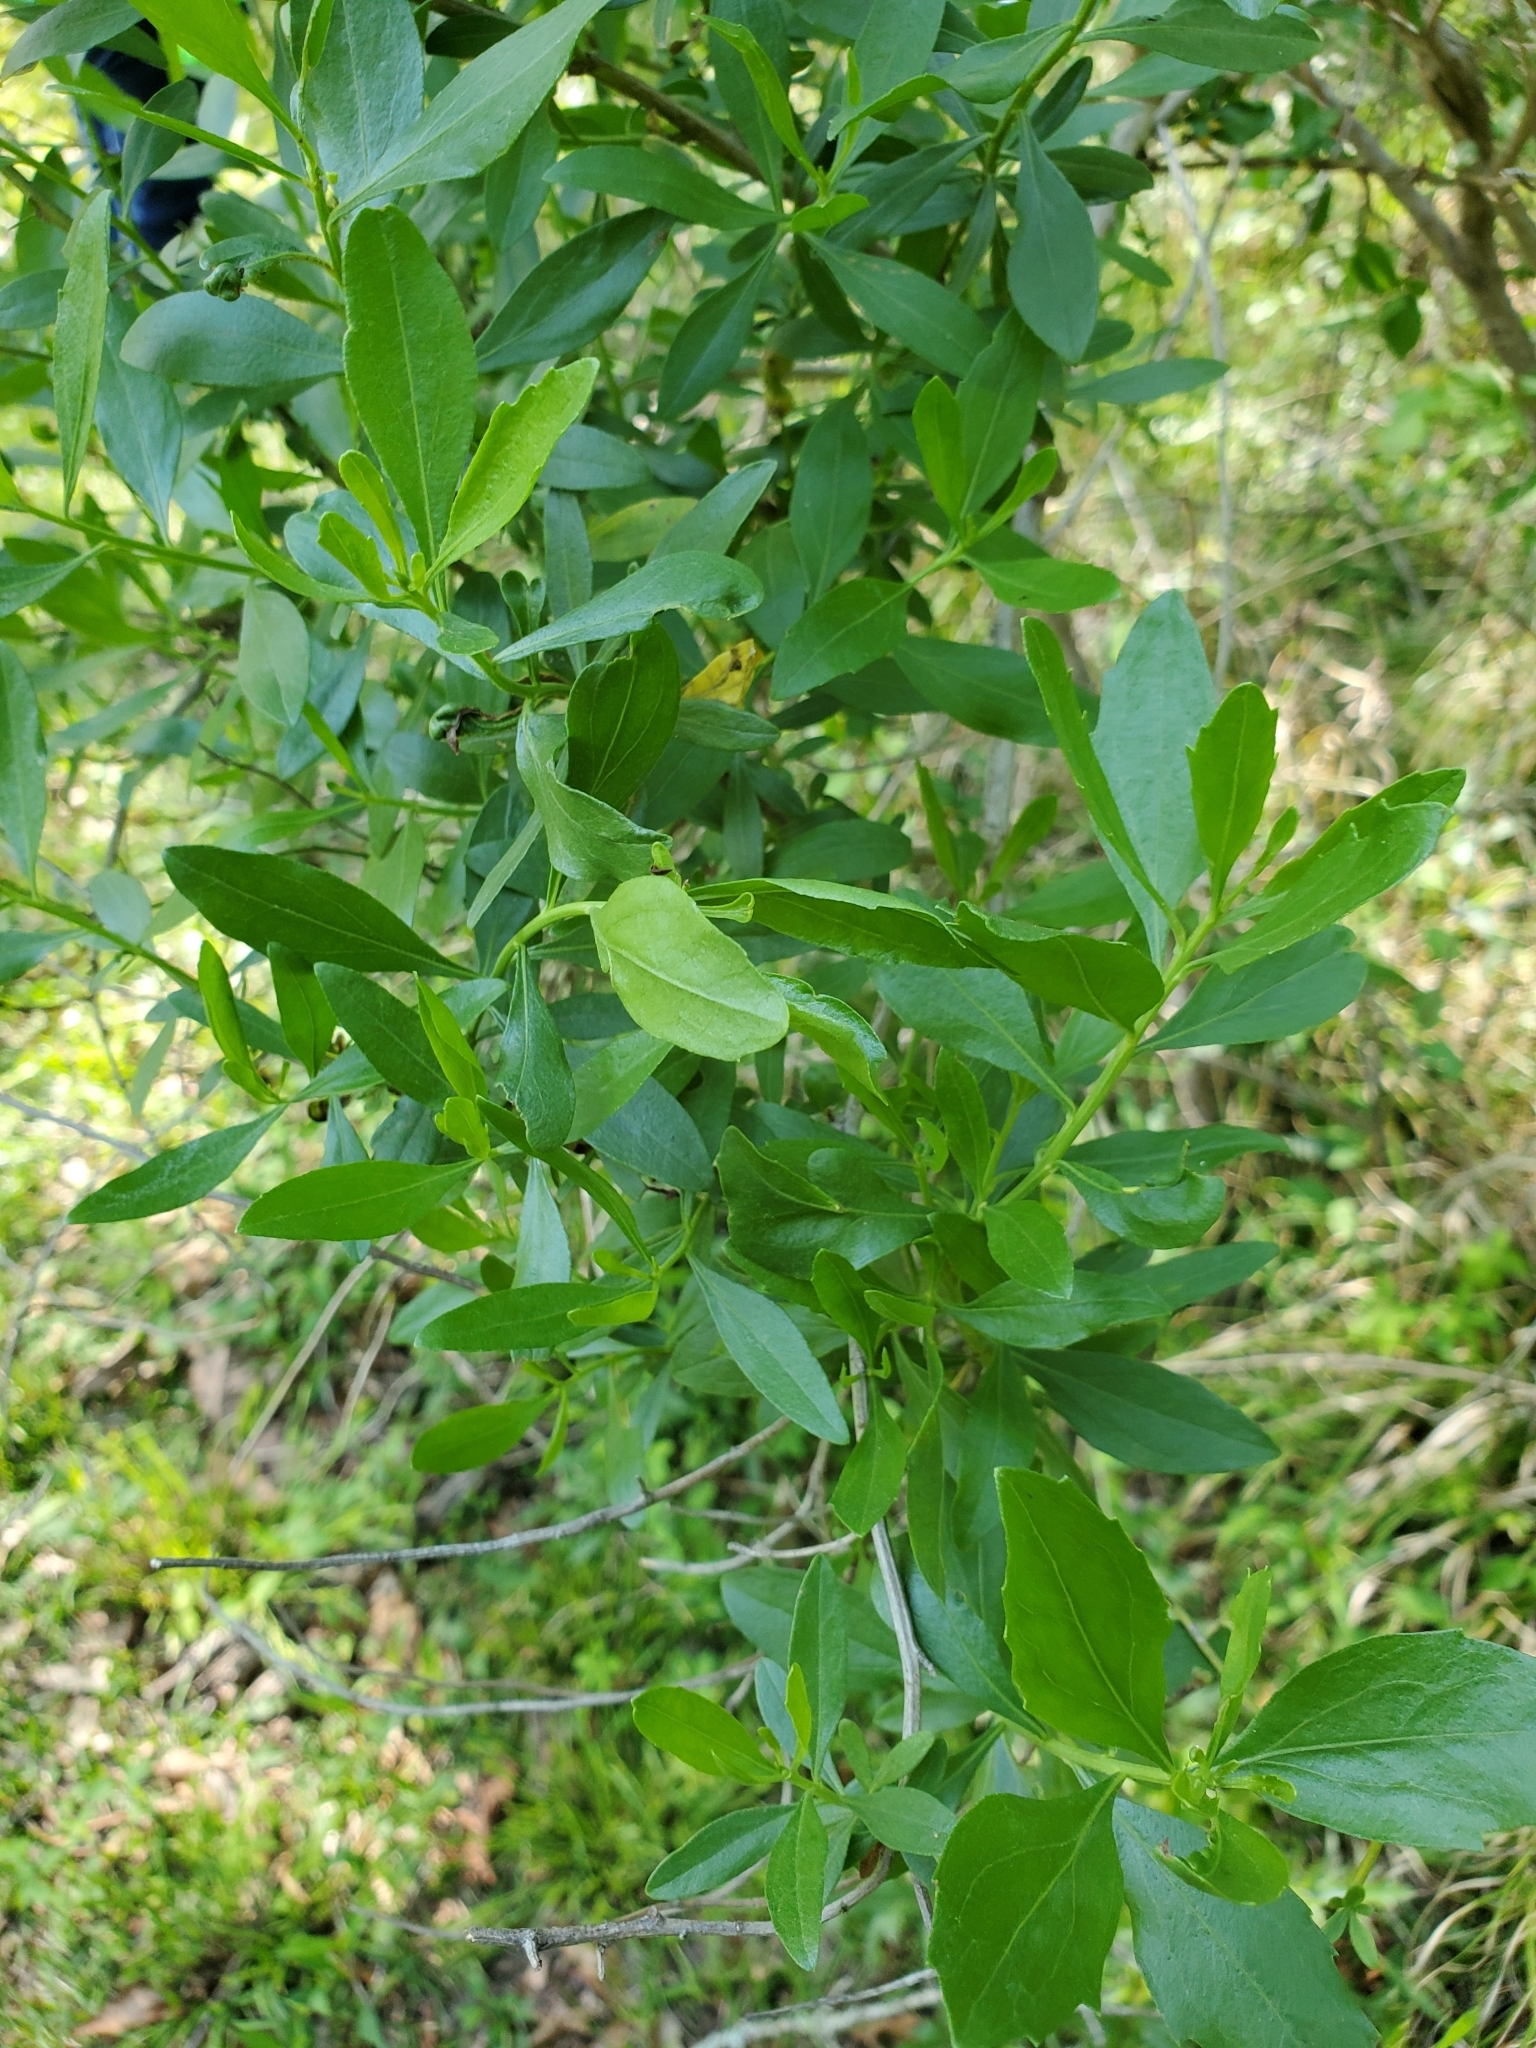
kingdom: Plantae
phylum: Tracheophyta
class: Magnoliopsida
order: Asterales
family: Asteraceae
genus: Baccharis
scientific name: Baccharis halimifolia
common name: Eastern baccharis
